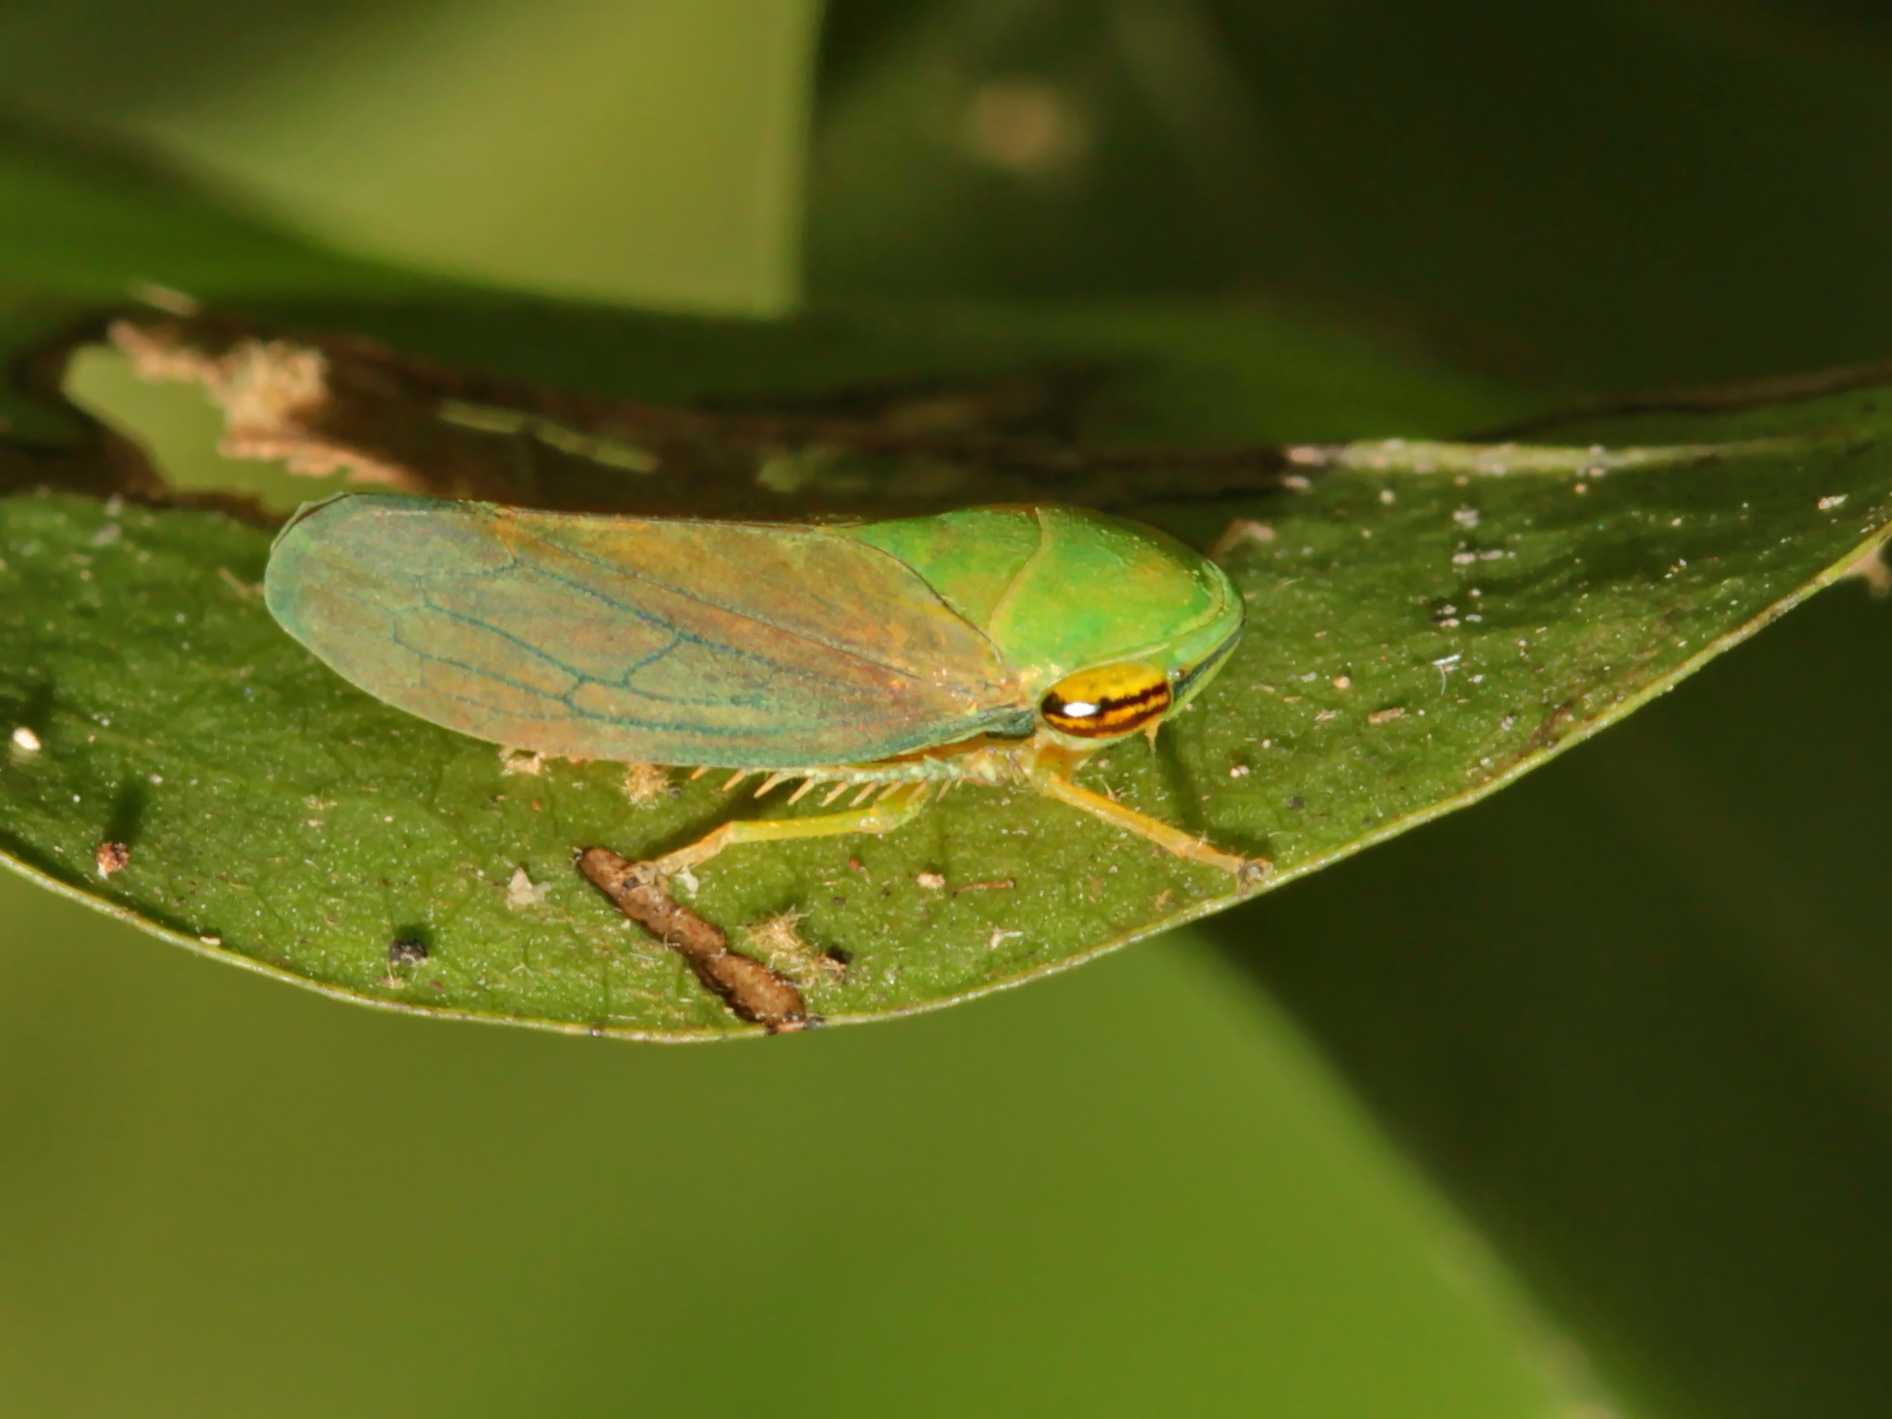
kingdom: Animalia
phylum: Arthropoda
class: Insecta
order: Hemiptera
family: Cicadellidae
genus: Tartessus
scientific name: Tartessus ferrugineus
